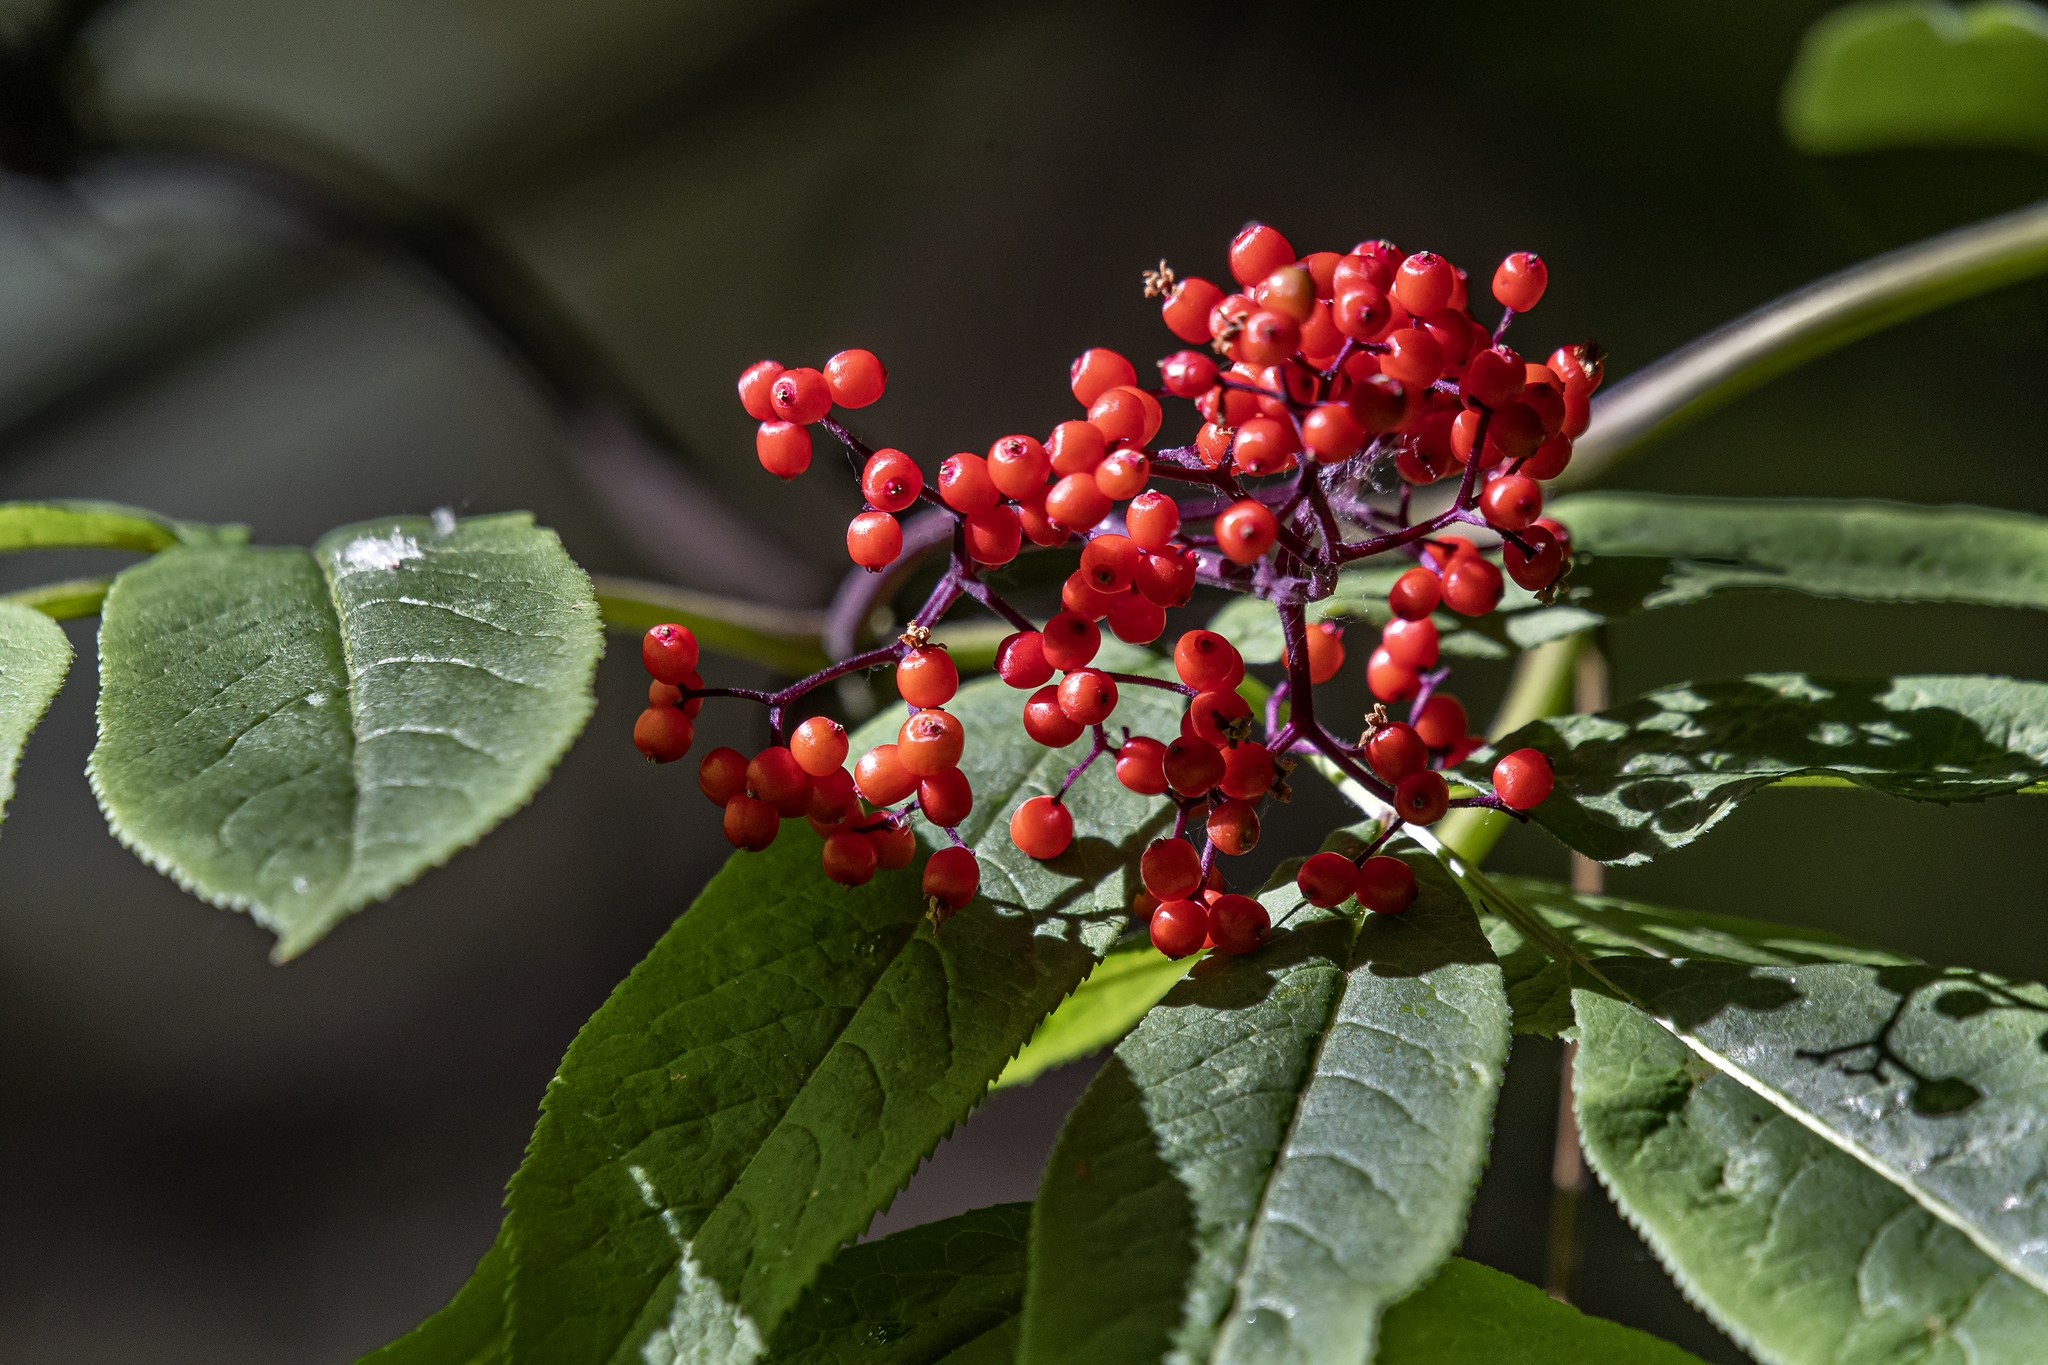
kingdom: Plantae
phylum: Tracheophyta
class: Magnoliopsida
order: Dipsacales
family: Viburnaceae
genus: Sambucus
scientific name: Sambucus racemosa
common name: Red-berried elder
